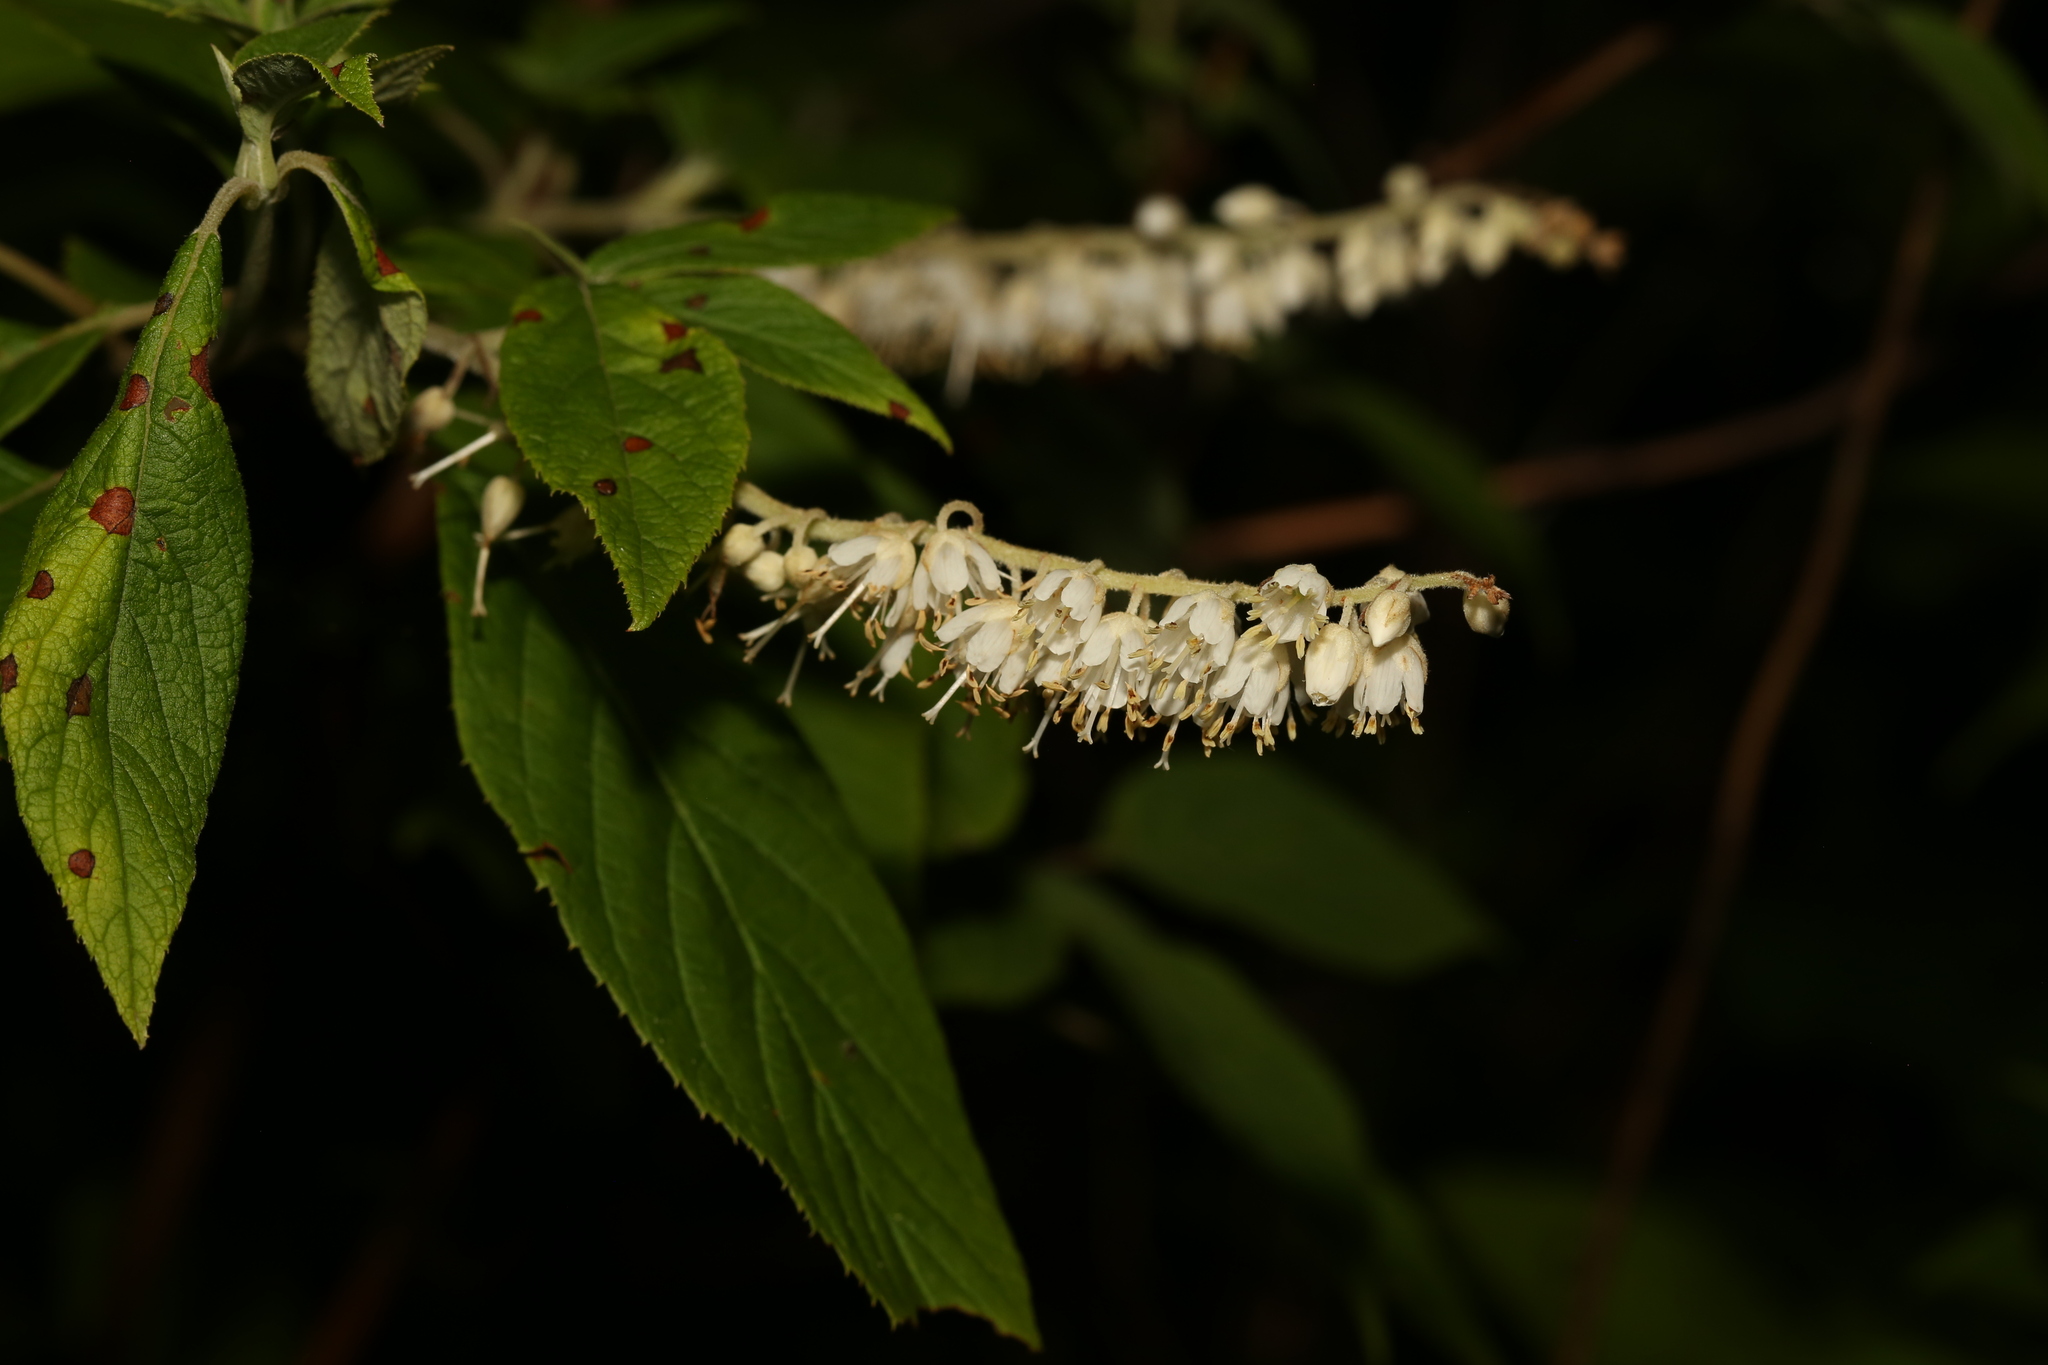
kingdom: Plantae
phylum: Tracheophyta
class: Magnoliopsida
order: Ericales
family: Clethraceae
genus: Clethra
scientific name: Clethra acuminata
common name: Mountain sweet pepperbush
